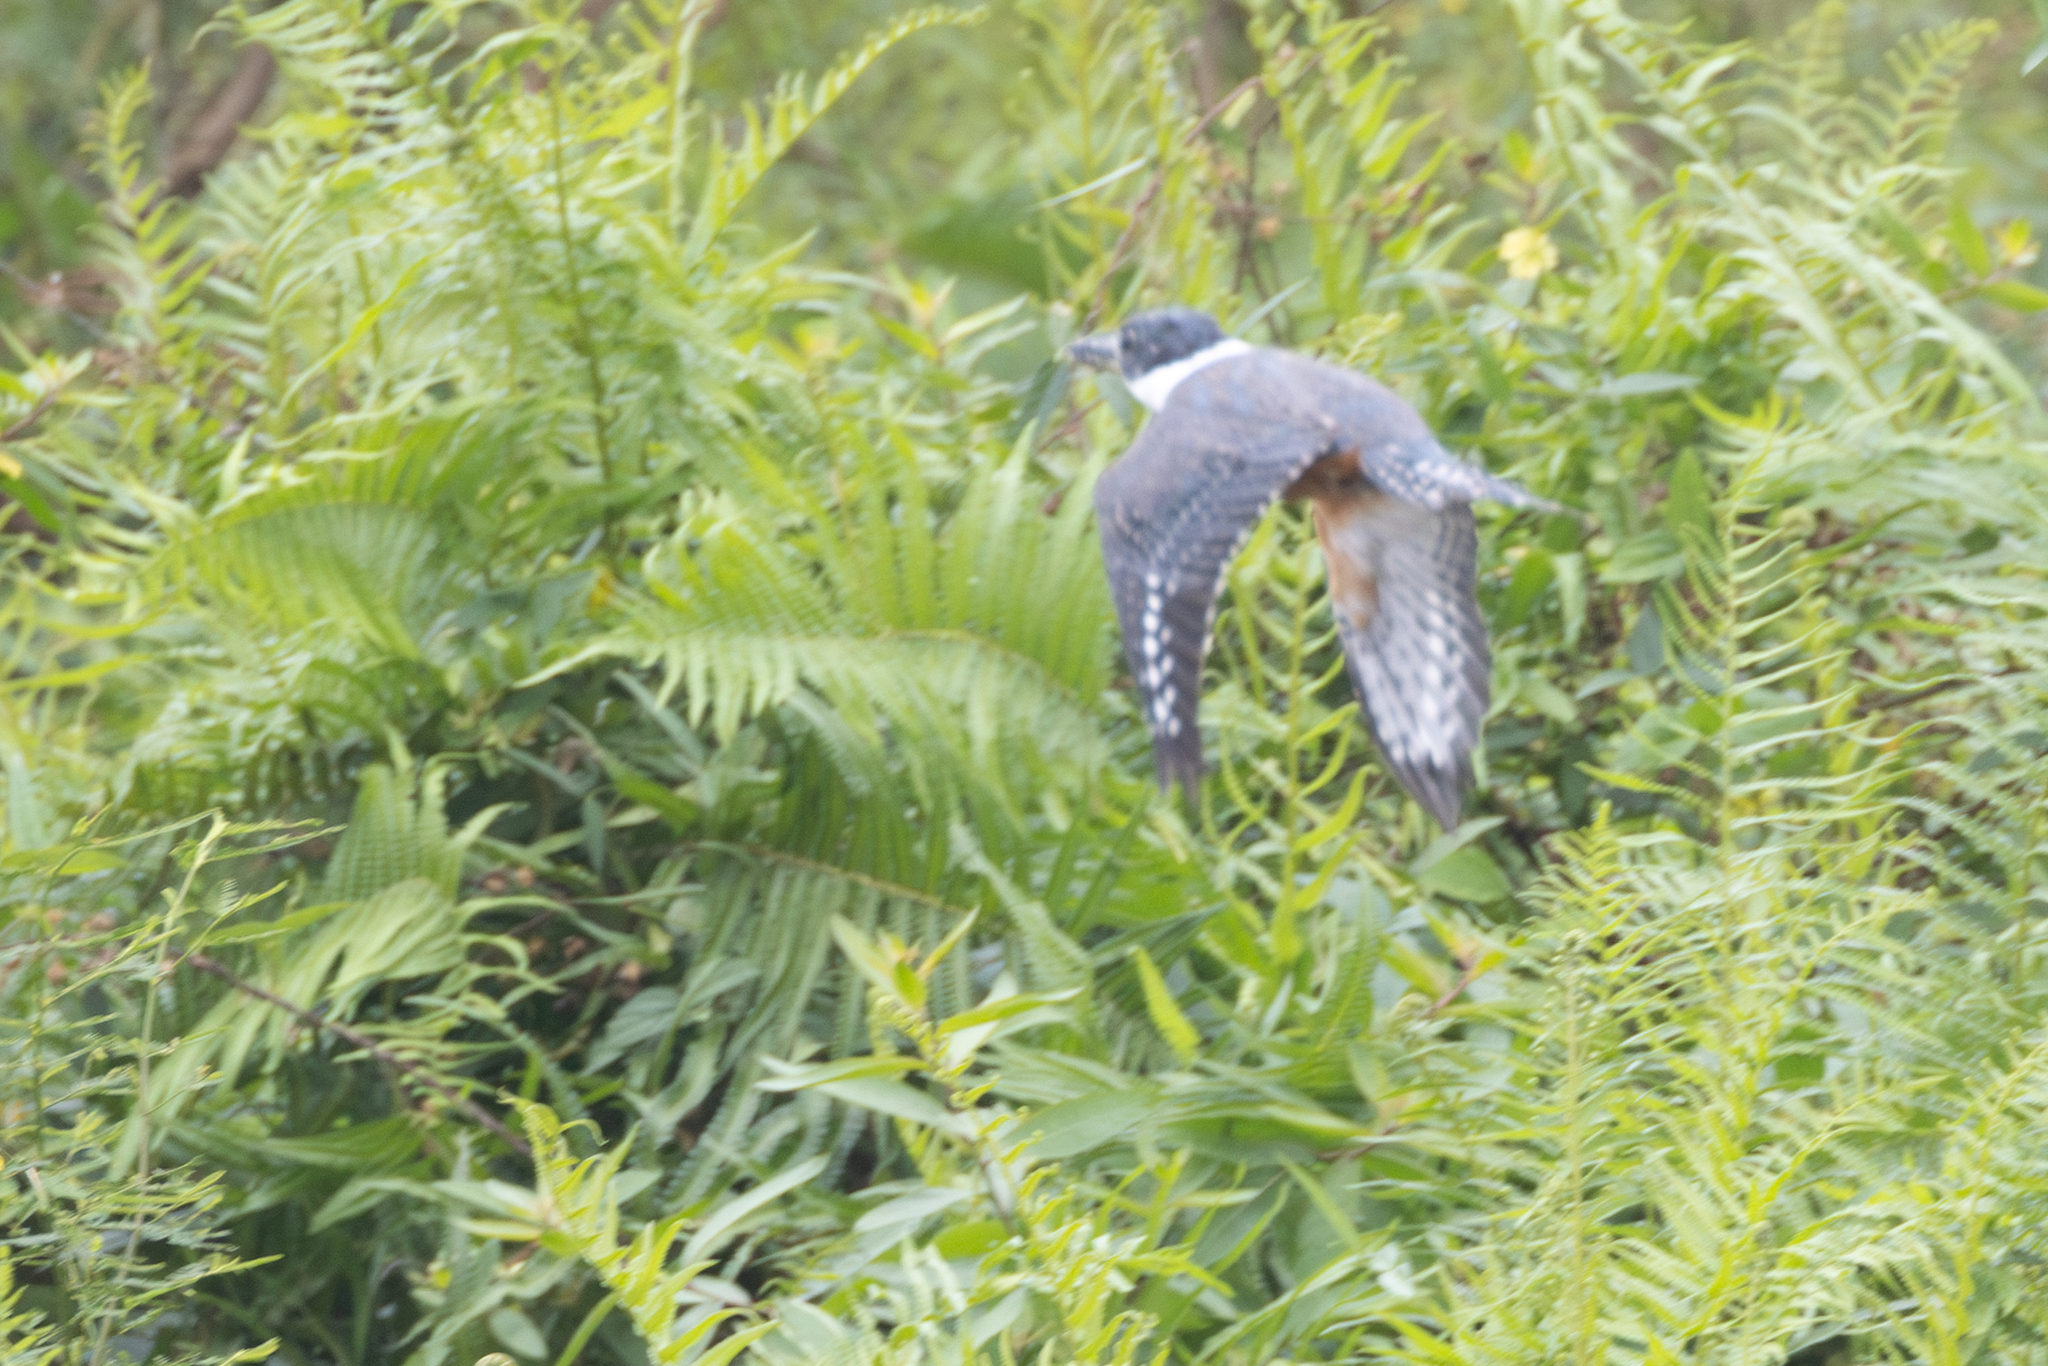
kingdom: Animalia
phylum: Chordata
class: Aves
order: Coraciiformes
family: Alcedinidae
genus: Megaceryle
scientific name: Megaceryle torquata
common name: Ringed kingfisher
